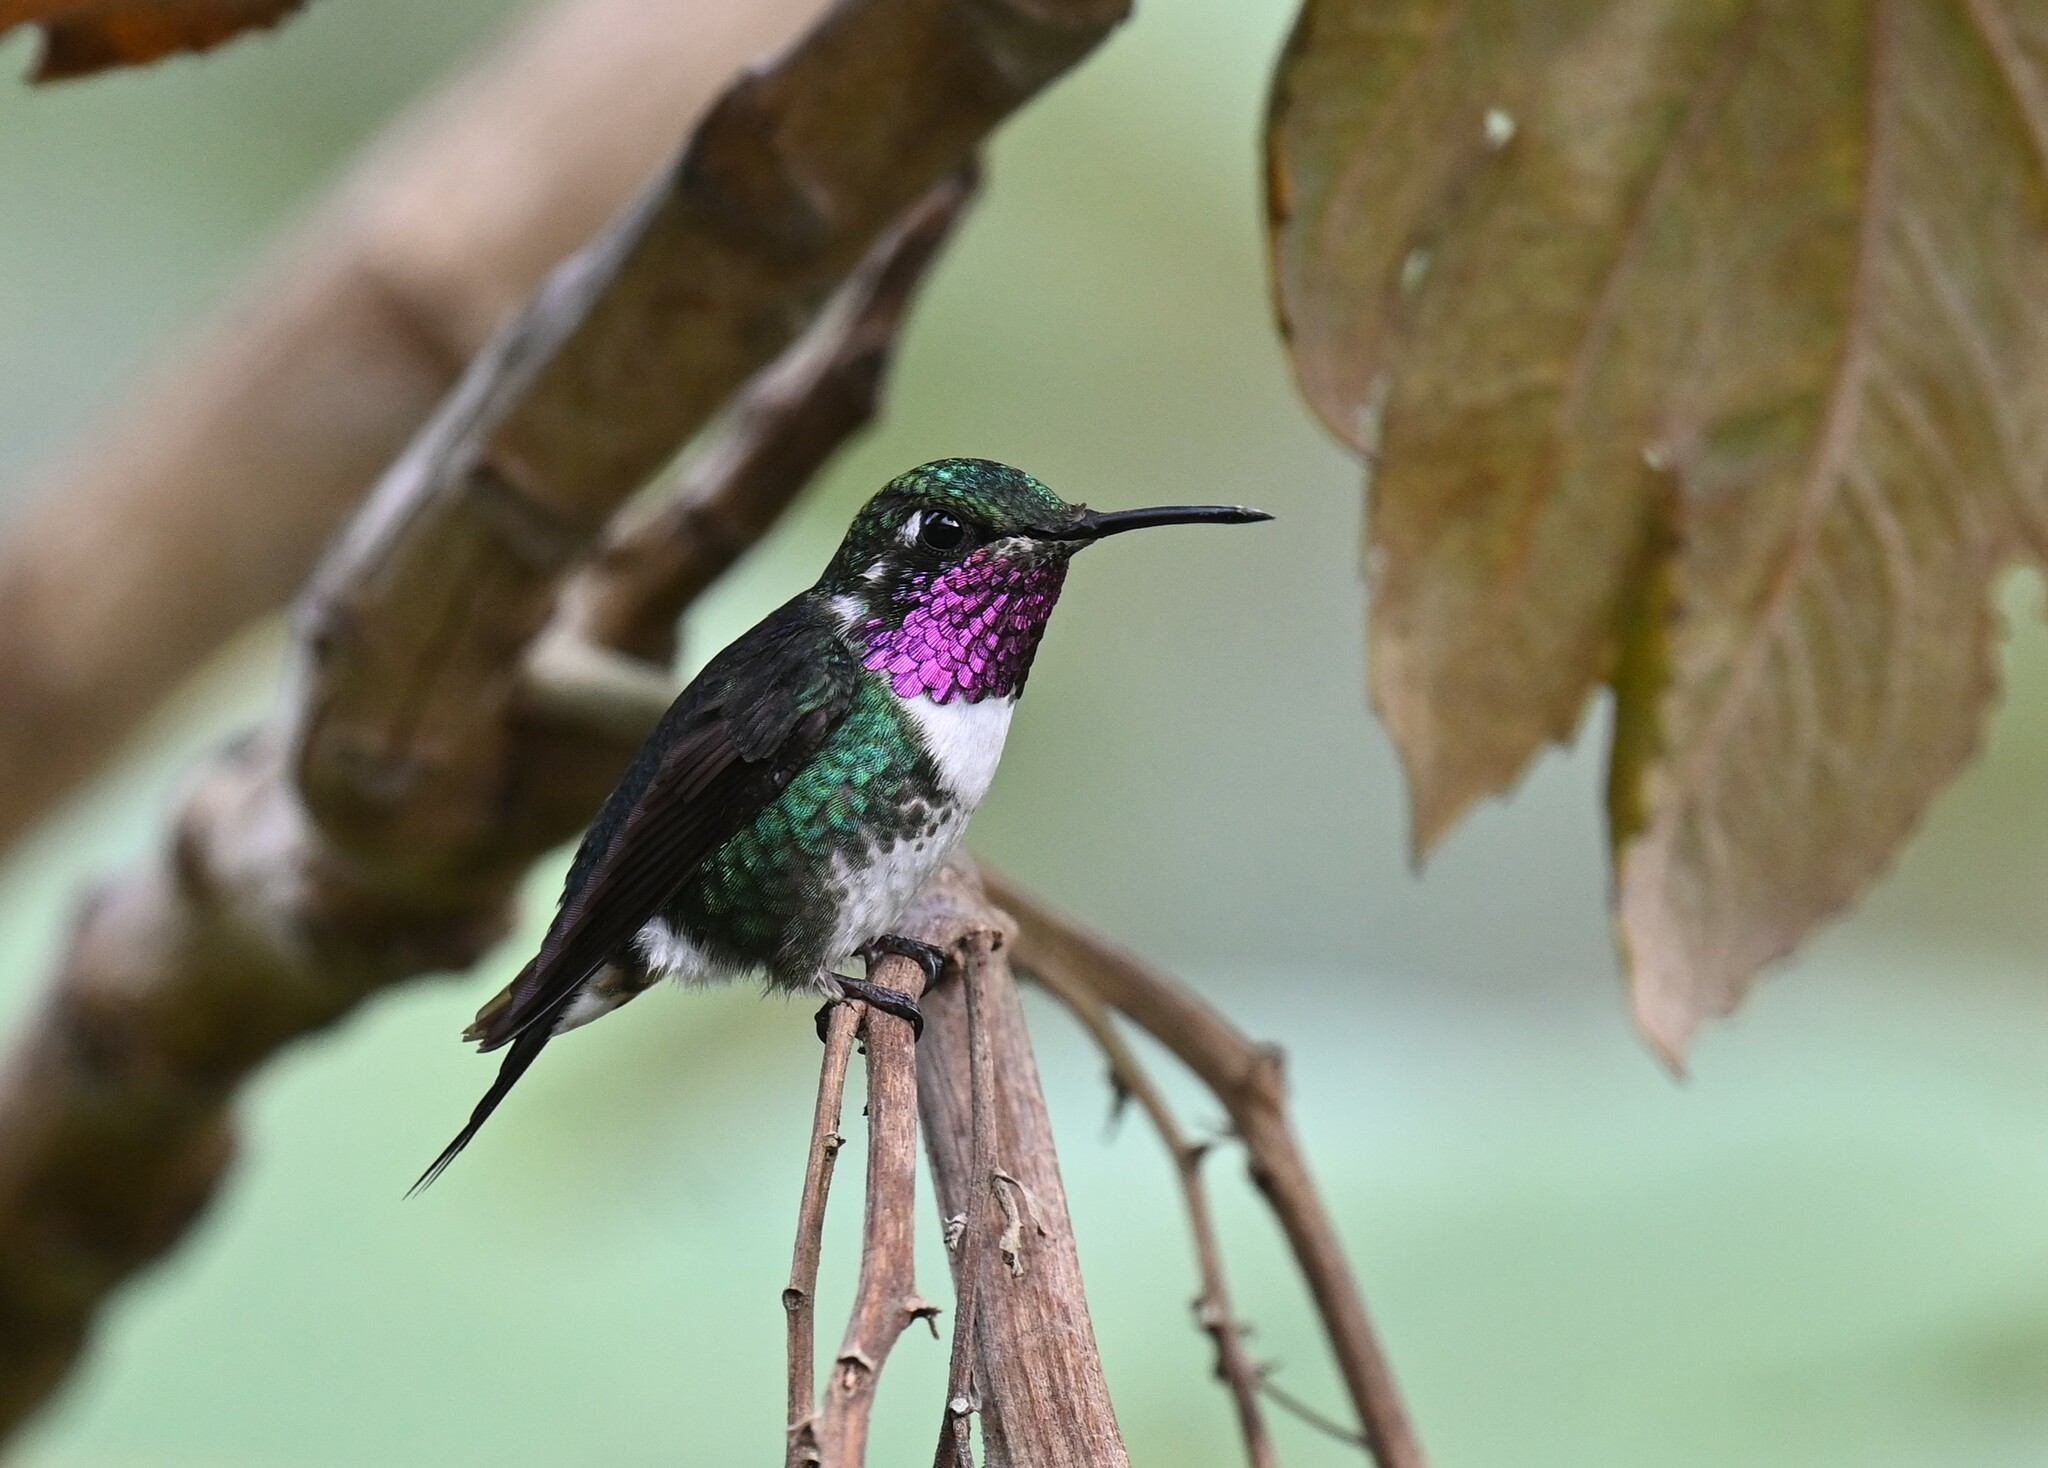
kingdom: Animalia
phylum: Chordata
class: Aves
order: Apodiformes
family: Trochilidae
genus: Chaetocercus
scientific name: Chaetocercus mulsant
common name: White-bellied woodstar
